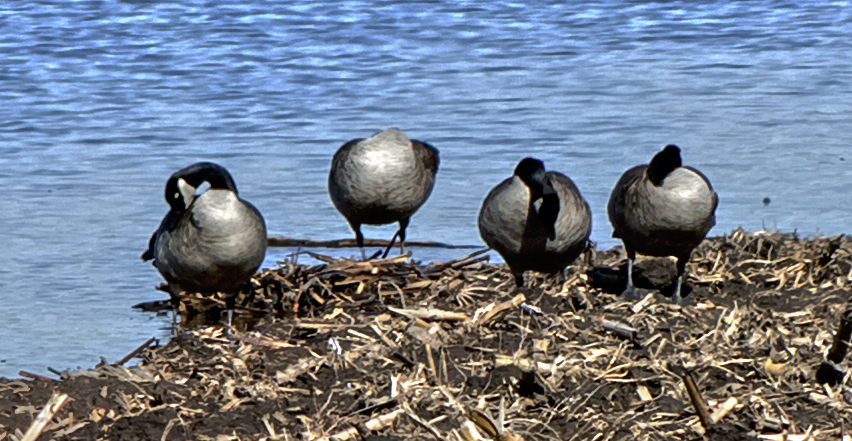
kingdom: Animalia
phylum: Chordata
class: Aves
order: Anseriformes
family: Anatidae
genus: Branta
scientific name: Branta canadensis
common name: Canada goose
